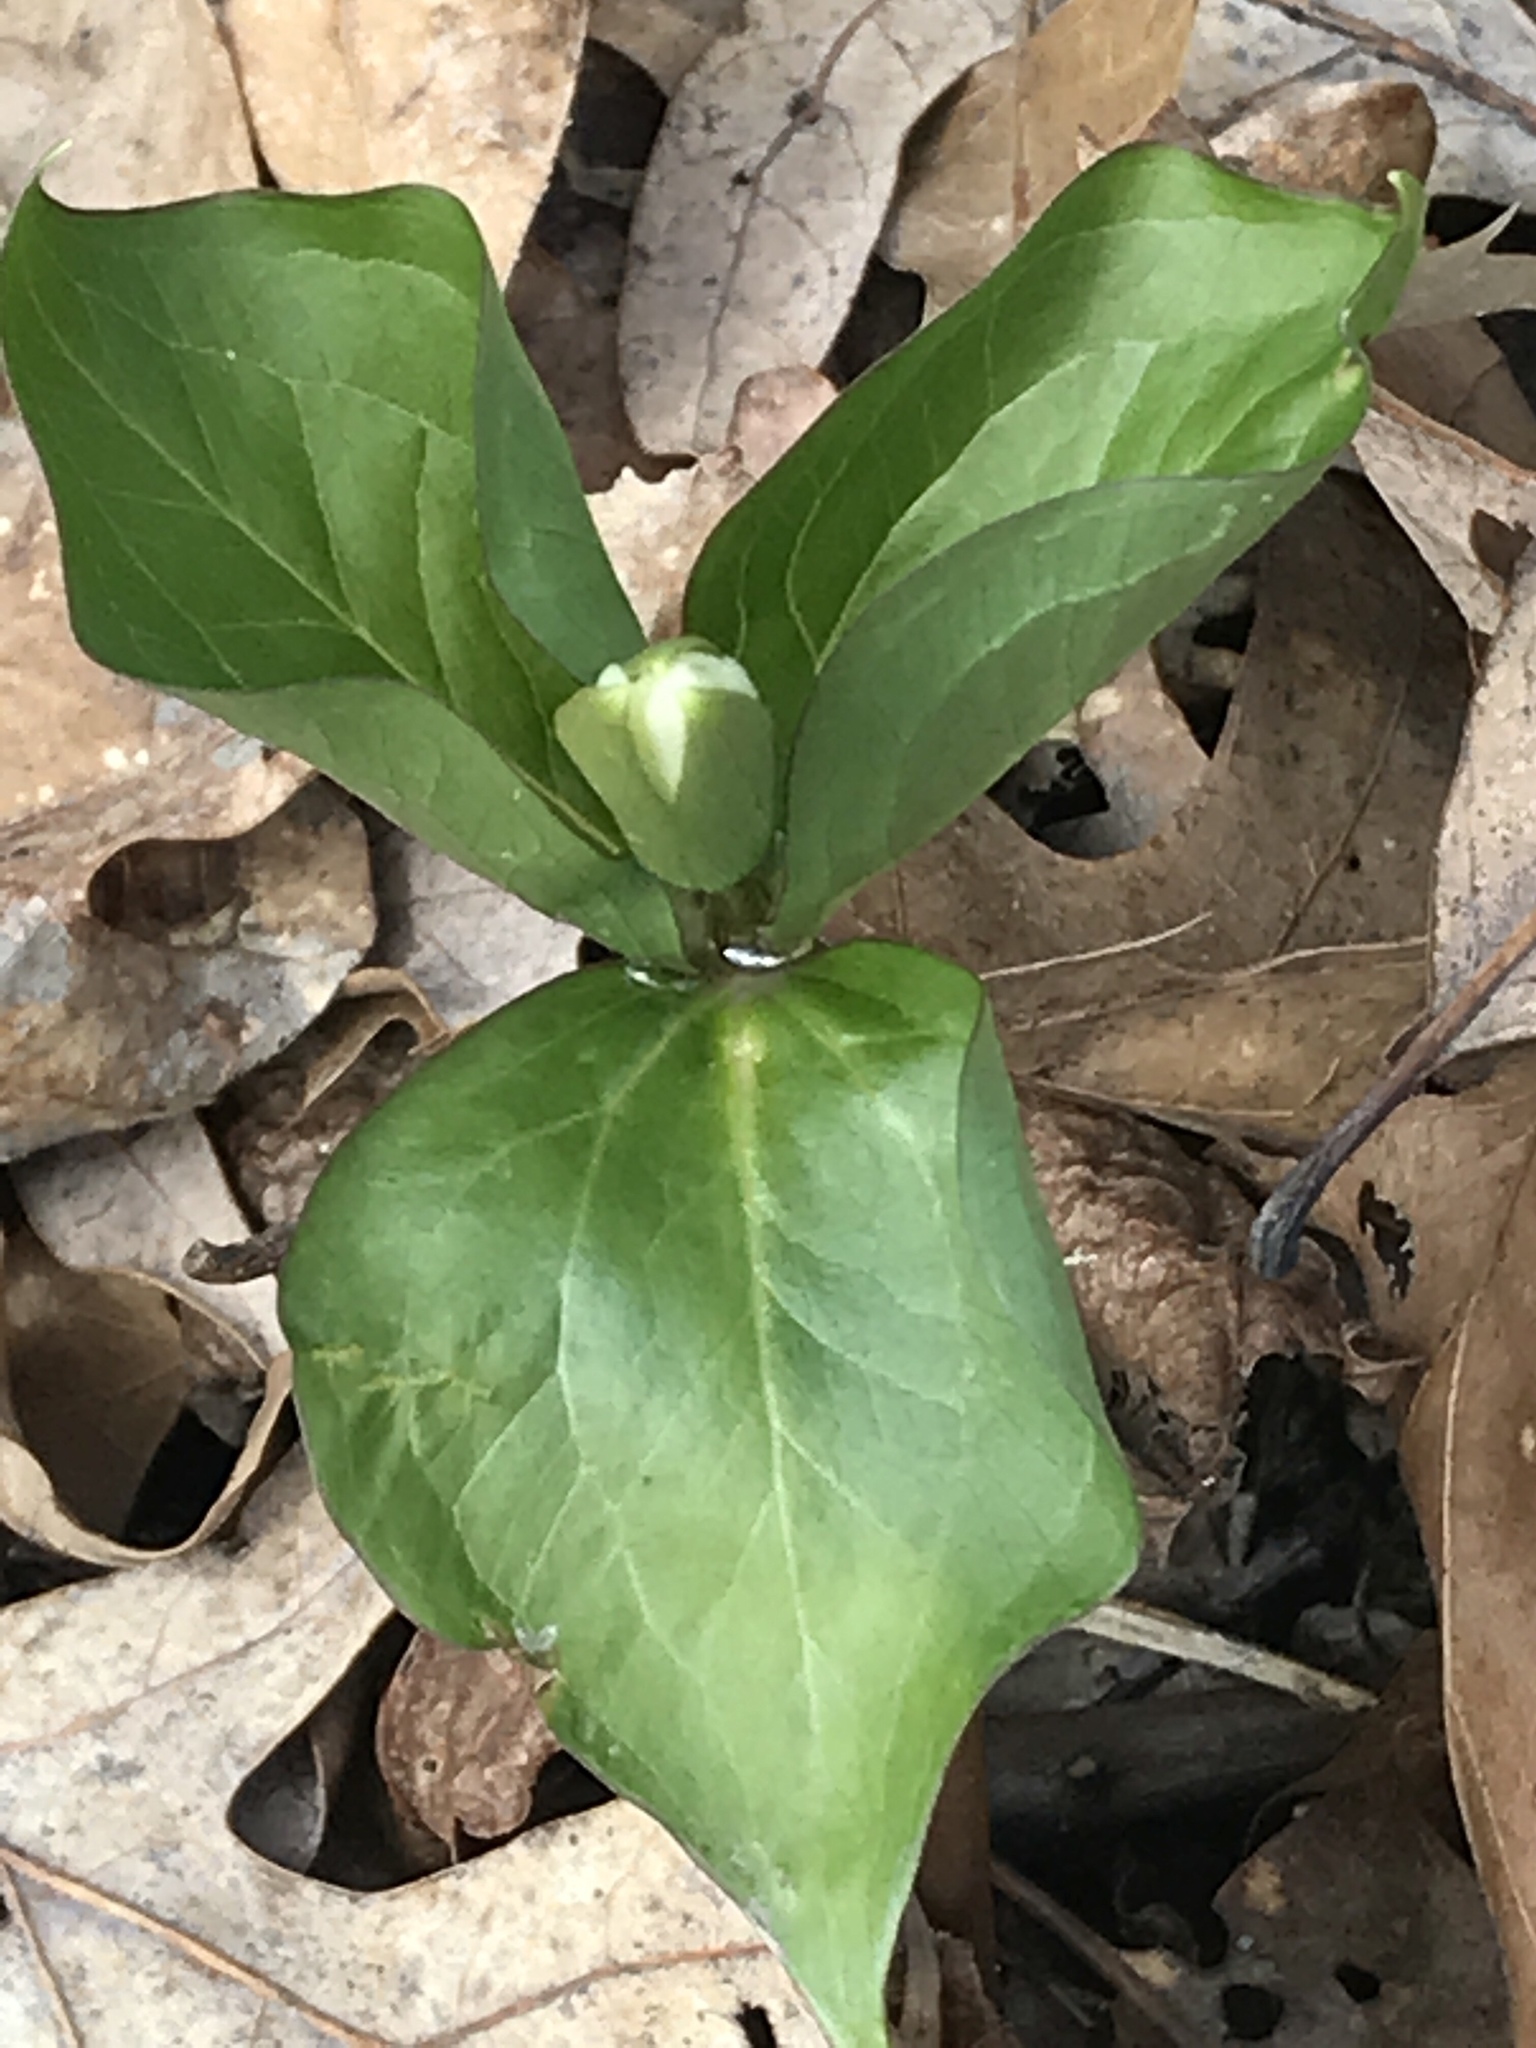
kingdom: Plantae
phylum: Tracheophyta
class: Liliopsida
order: Liliales
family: Melanthiaceae
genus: Trillium
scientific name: Trillium grandiflorum
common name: Great white trillium
